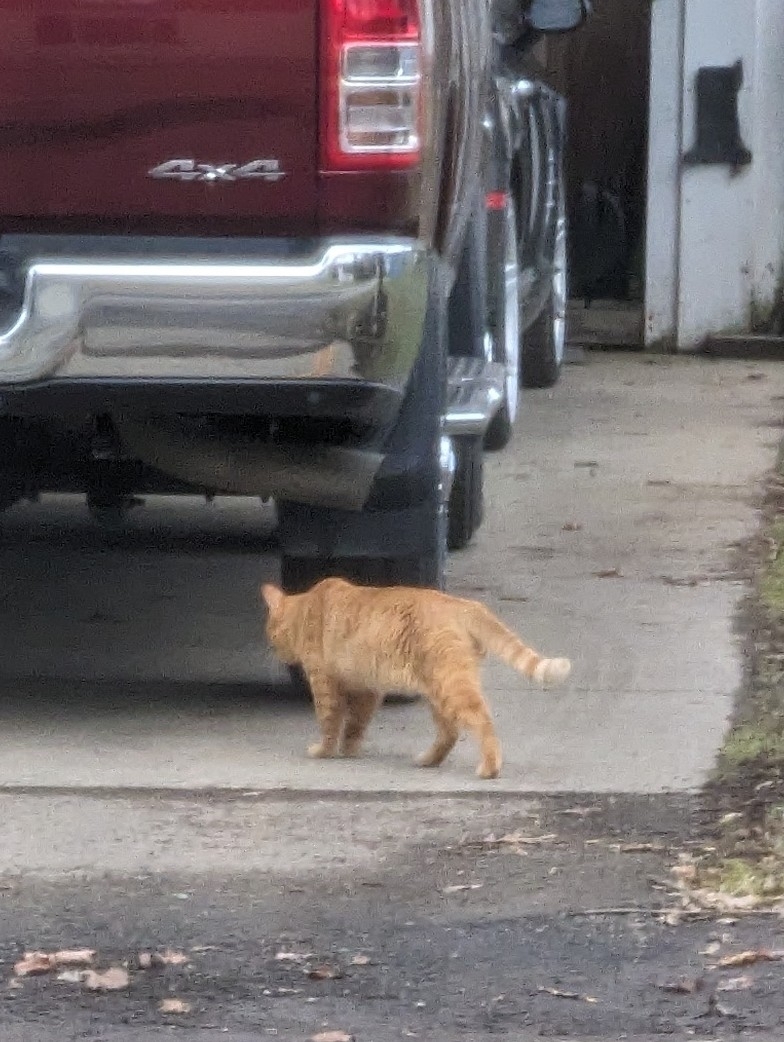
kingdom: Animalia
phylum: Chordata
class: Mammalia
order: Carnivora
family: Felidae
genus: Felis
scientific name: Felis catus
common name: Domestic cat
